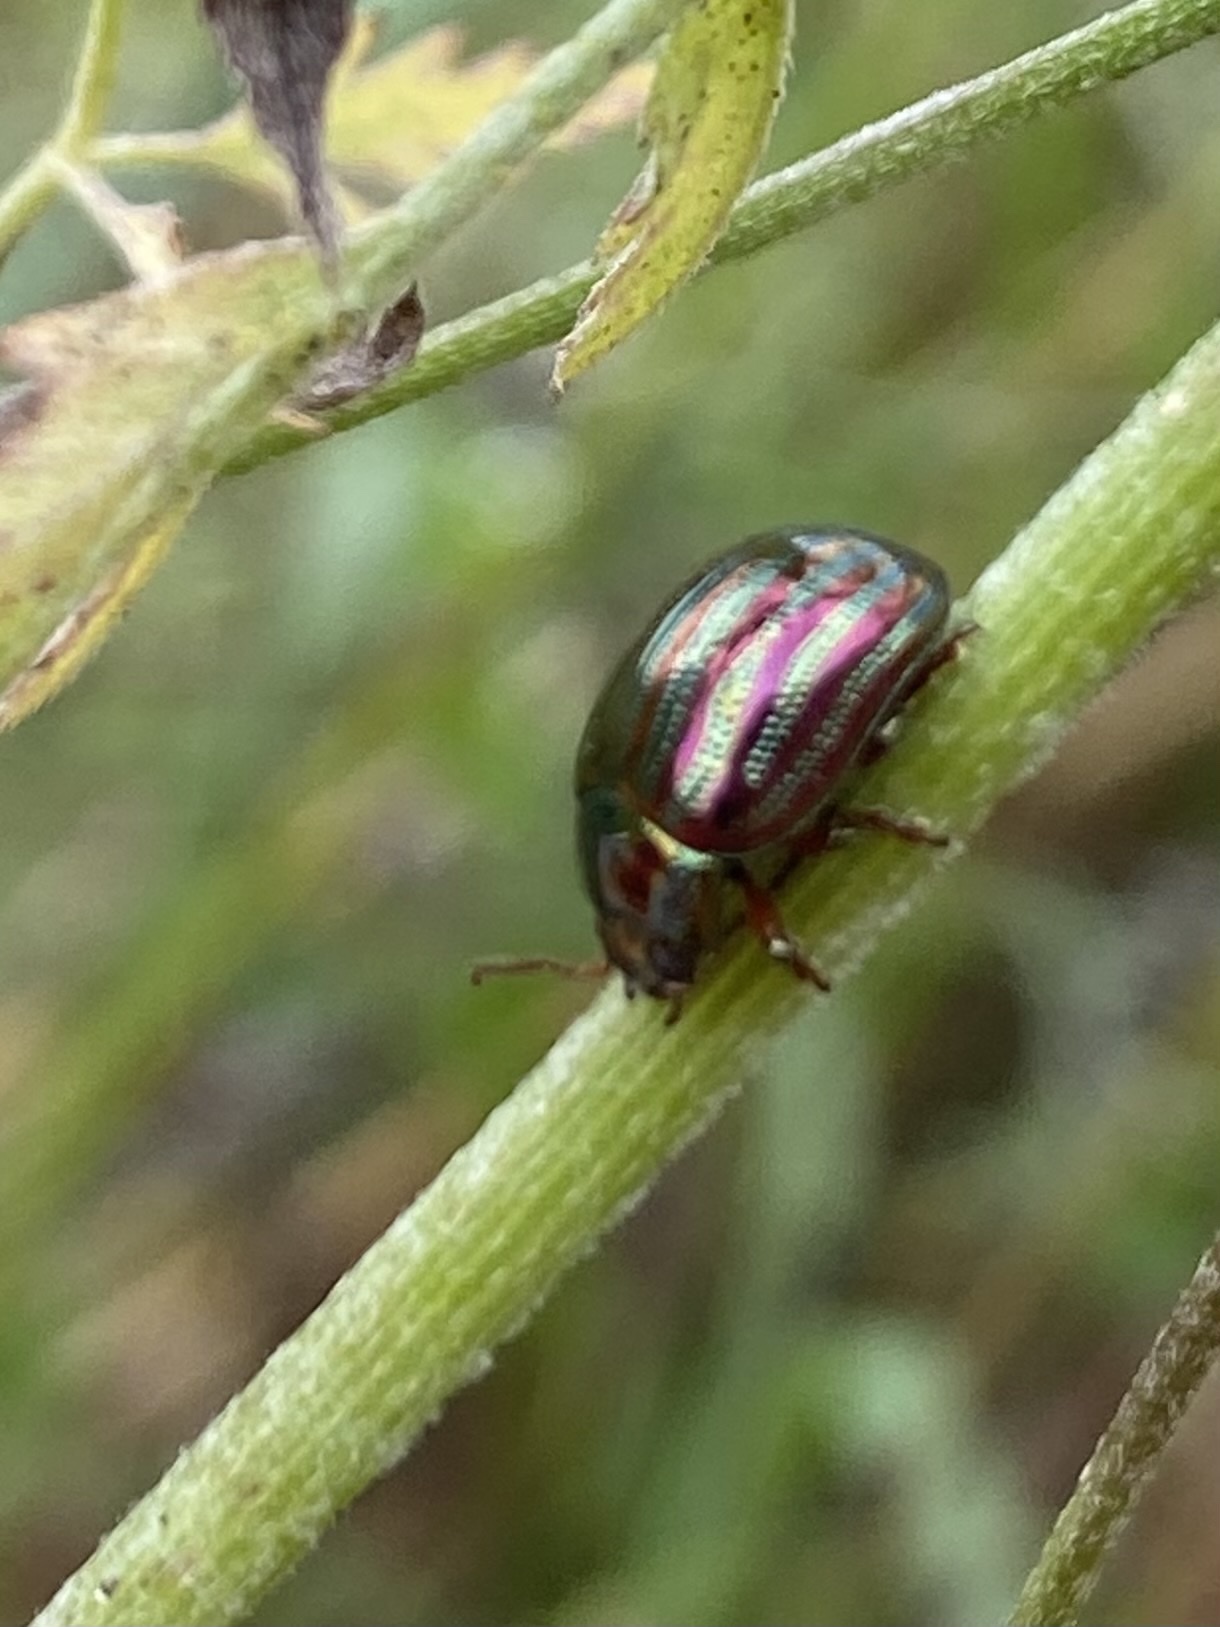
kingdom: Animalia
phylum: Arthropoda
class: Insecta
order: Coleoptera
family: Chrysomelidae
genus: Chrysolina
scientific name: Chrysolina americana
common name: Rosemary beetle
